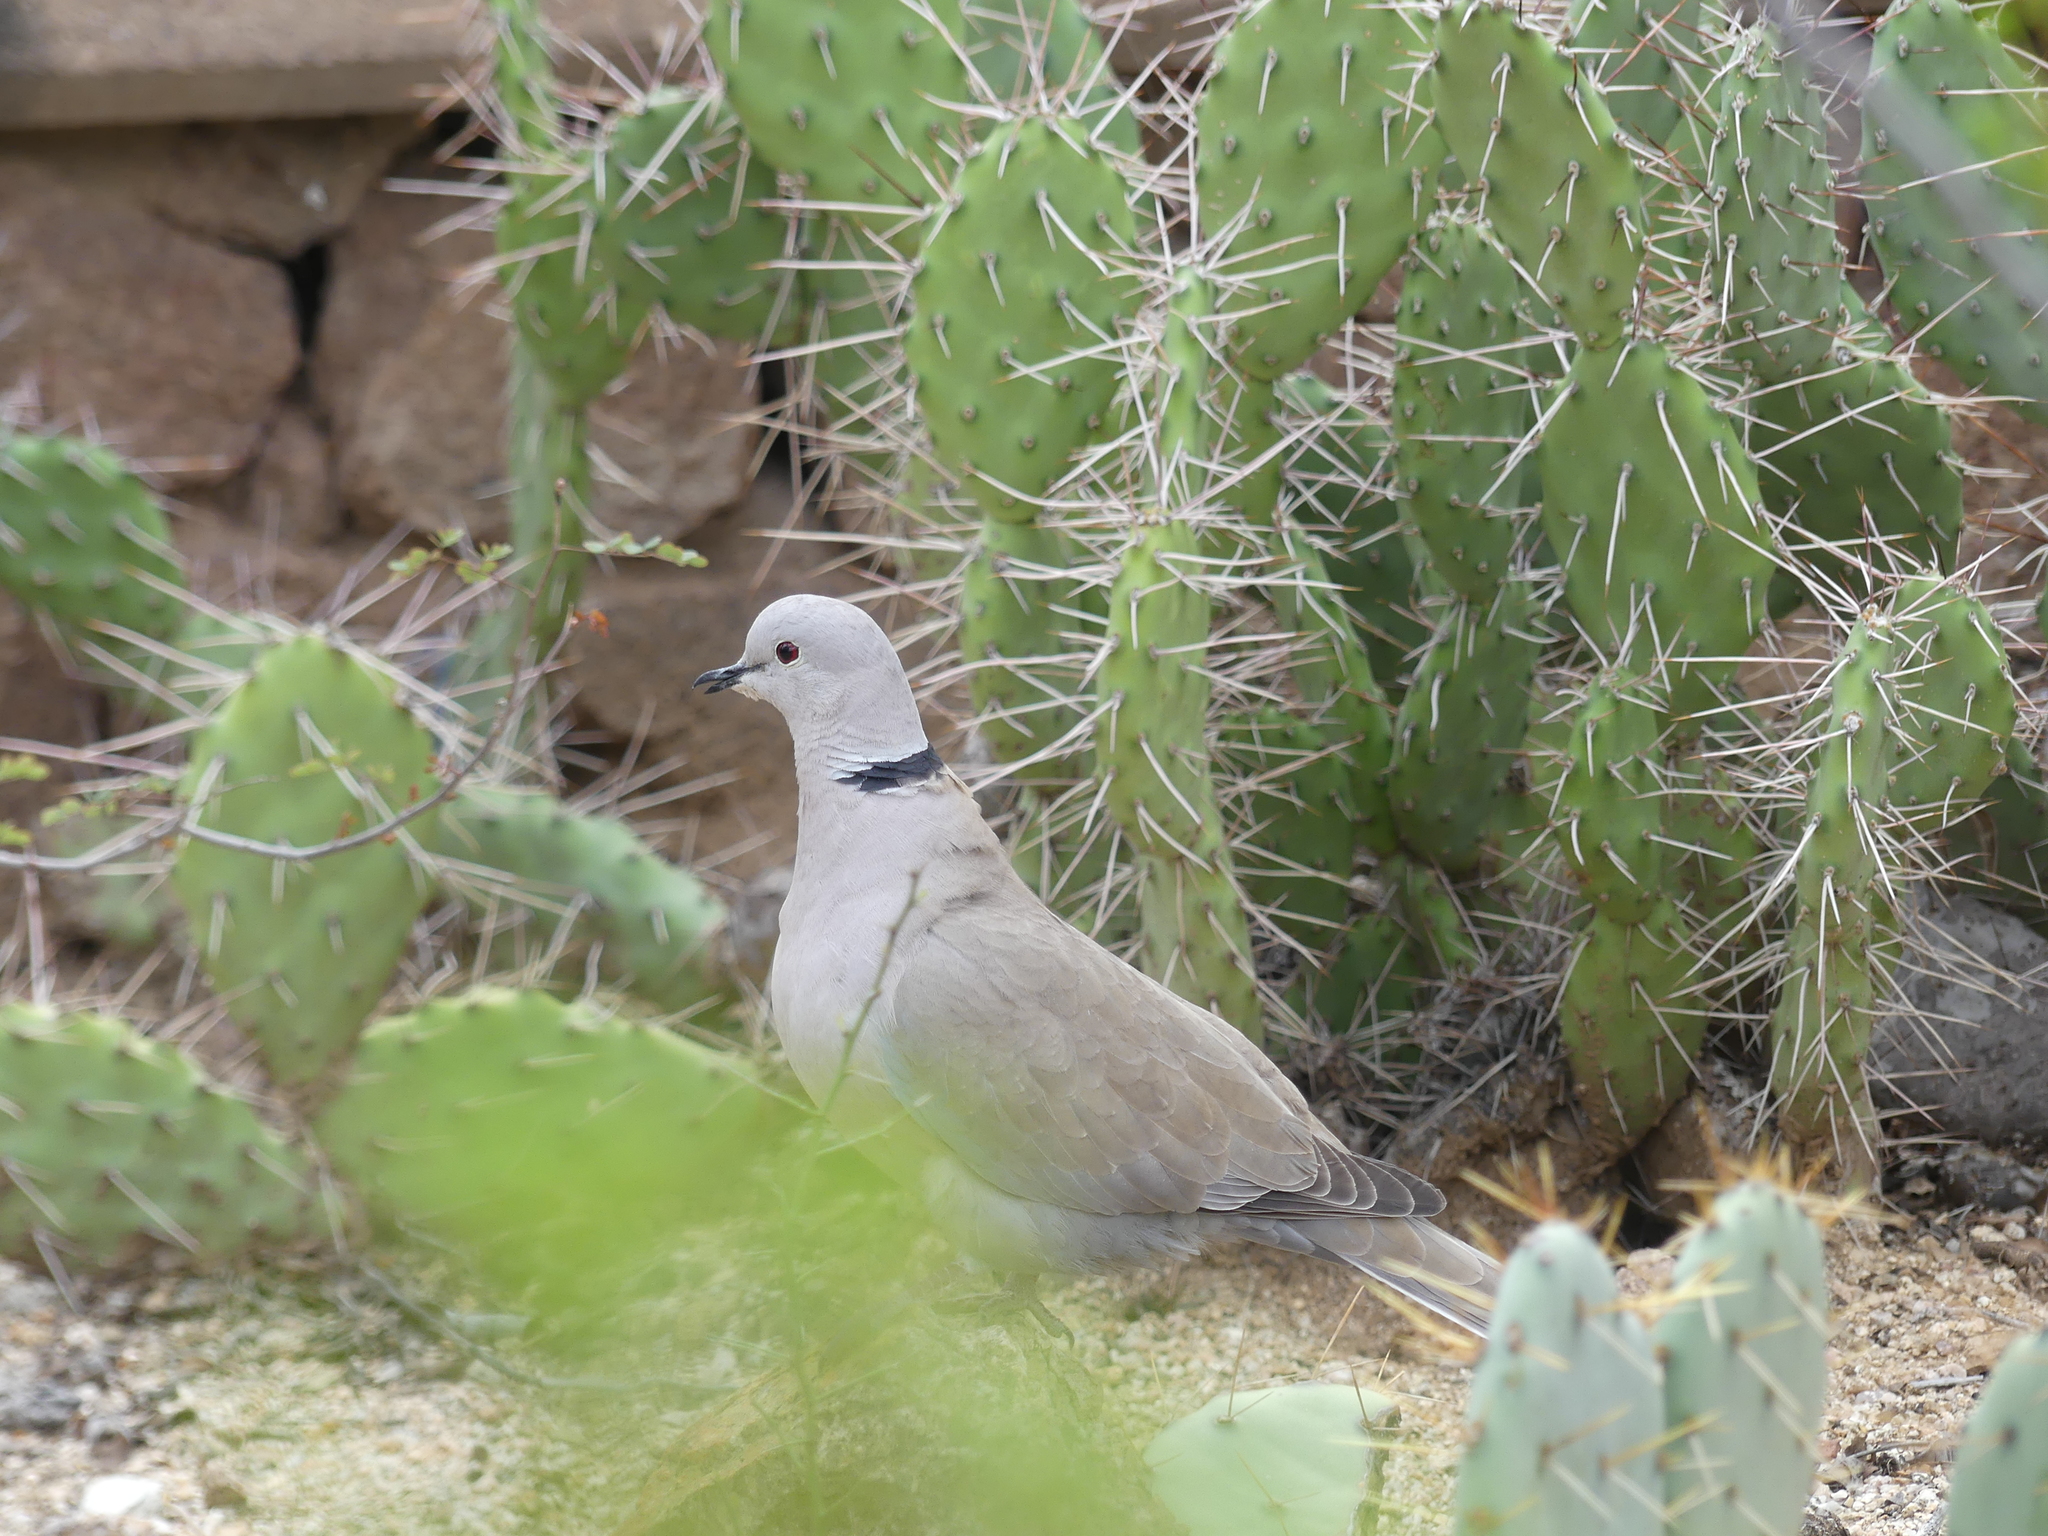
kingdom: Animalia
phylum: Chordata
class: Aves
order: Columbiformes
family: Columbidae
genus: Streptopelia
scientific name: Streptopelia decaocto
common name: Eurasian collared dove
